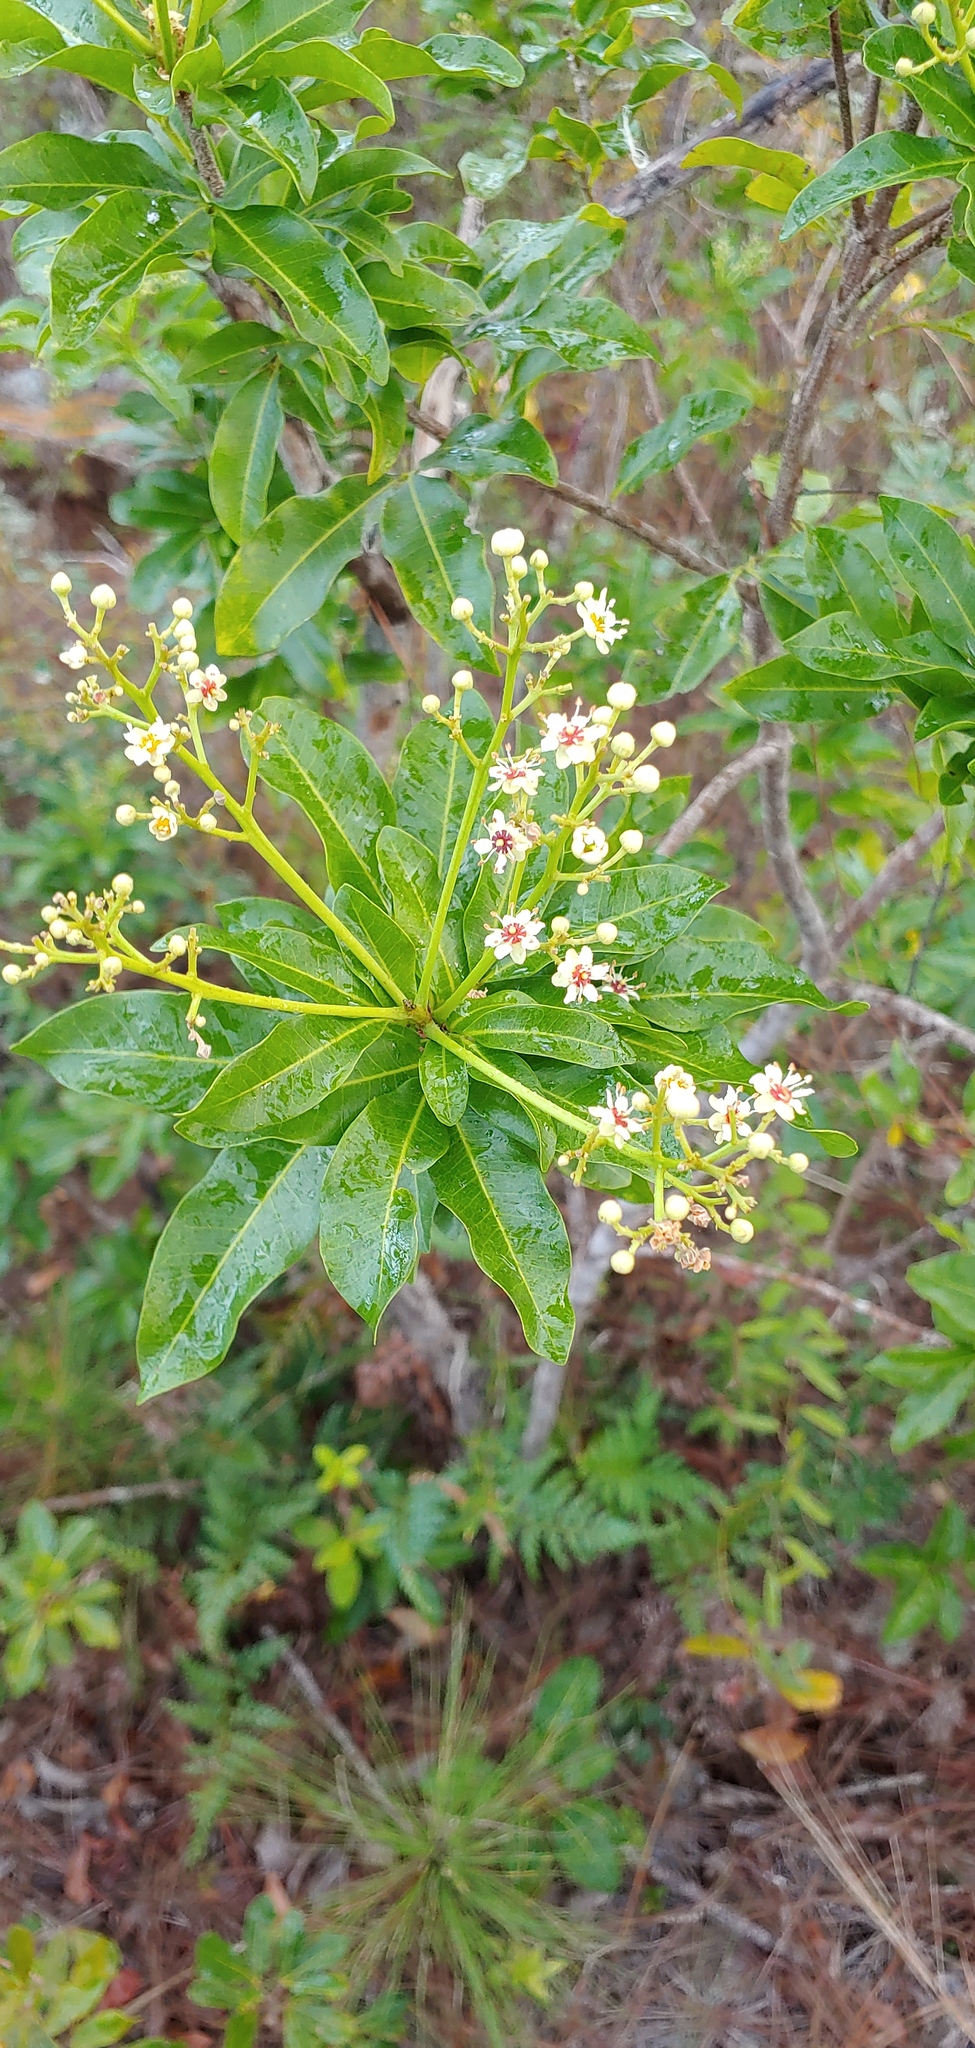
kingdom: Plantae
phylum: Tracheophyta
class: Magnoliopsida
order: Sapindales
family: Sapindaceae
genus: Exothea
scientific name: Exothea paniculata
